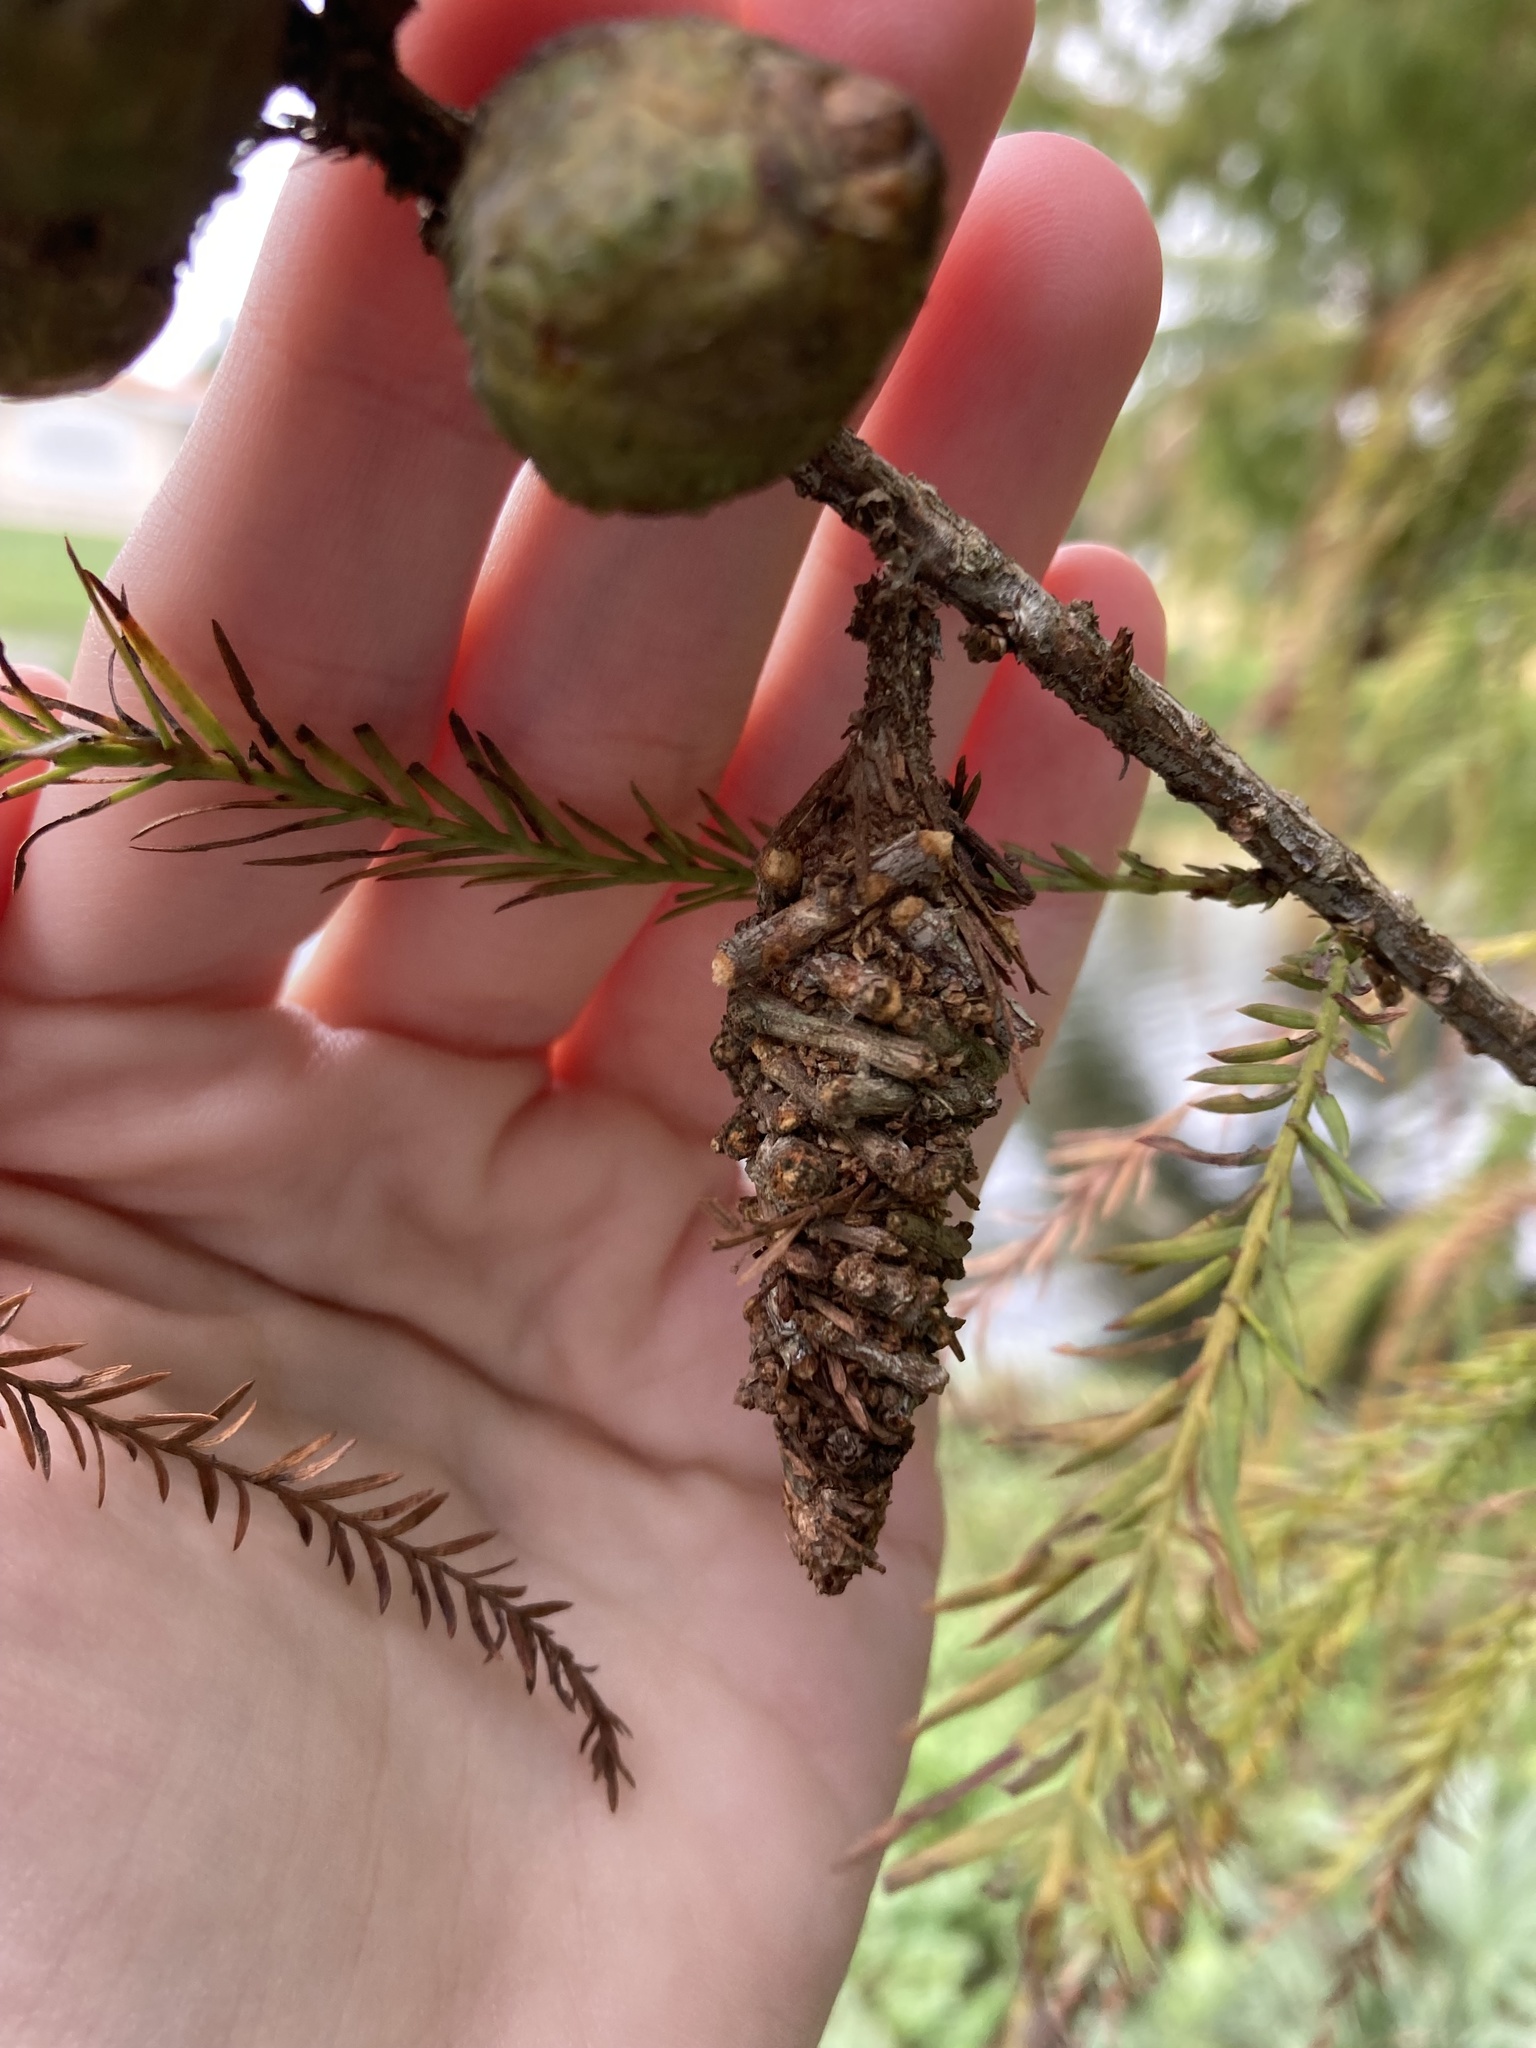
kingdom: Animalia
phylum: Arthropoda
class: Insecta
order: Lepidoptera
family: Psychidae
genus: Oiketicus
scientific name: Oiketicus
